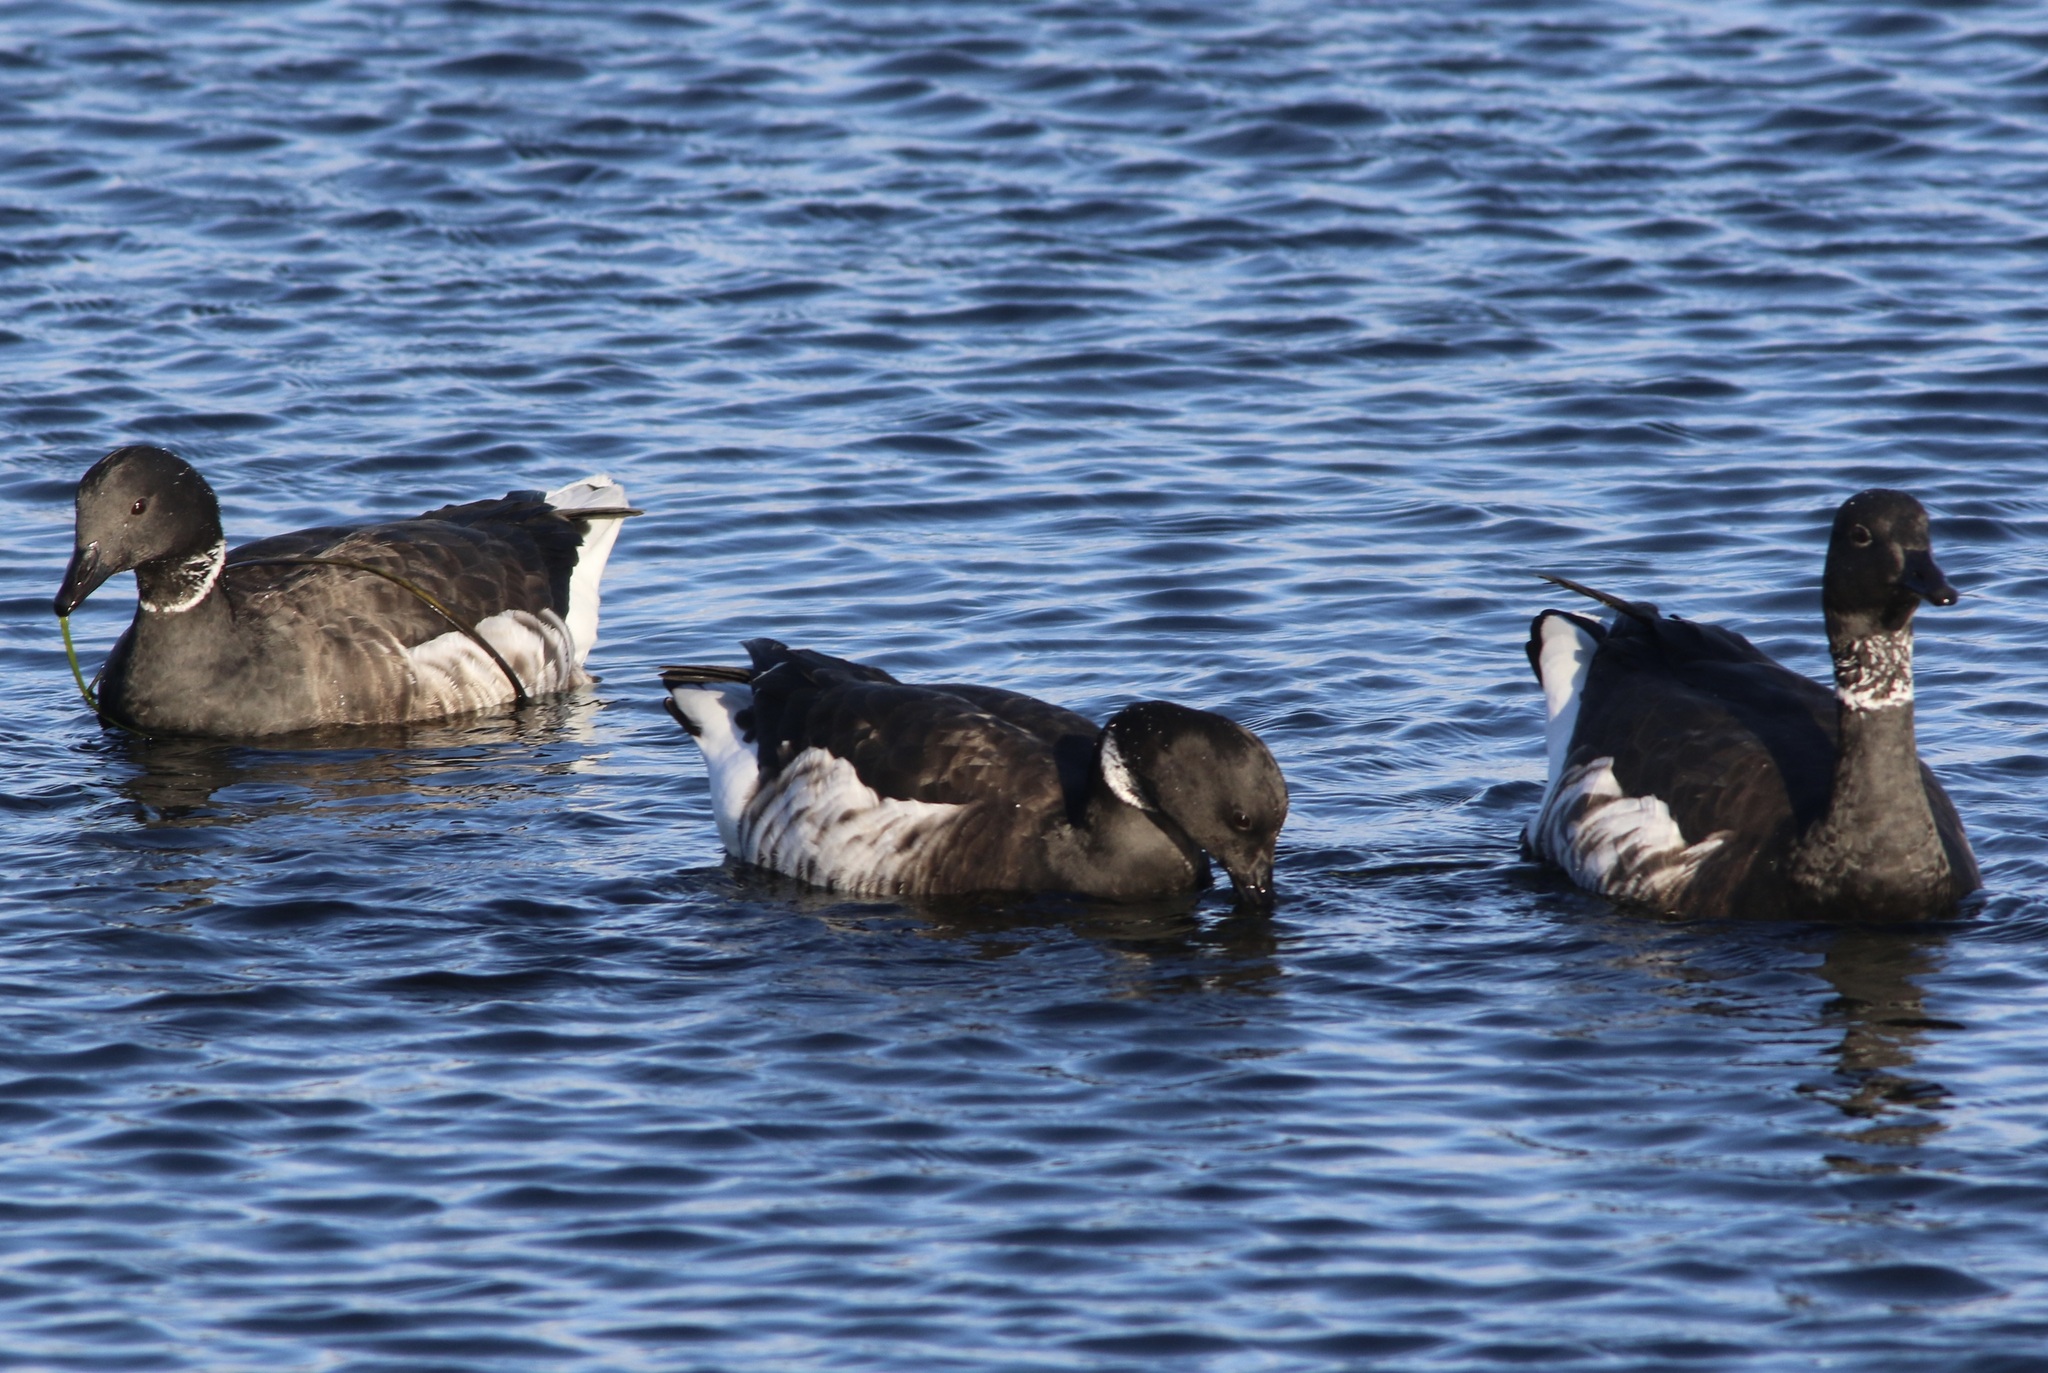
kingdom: Animalia
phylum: Chordata
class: Aves
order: Anseriformes
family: Anatidae
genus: Branta
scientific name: Branta bernicla
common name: Brant goose
